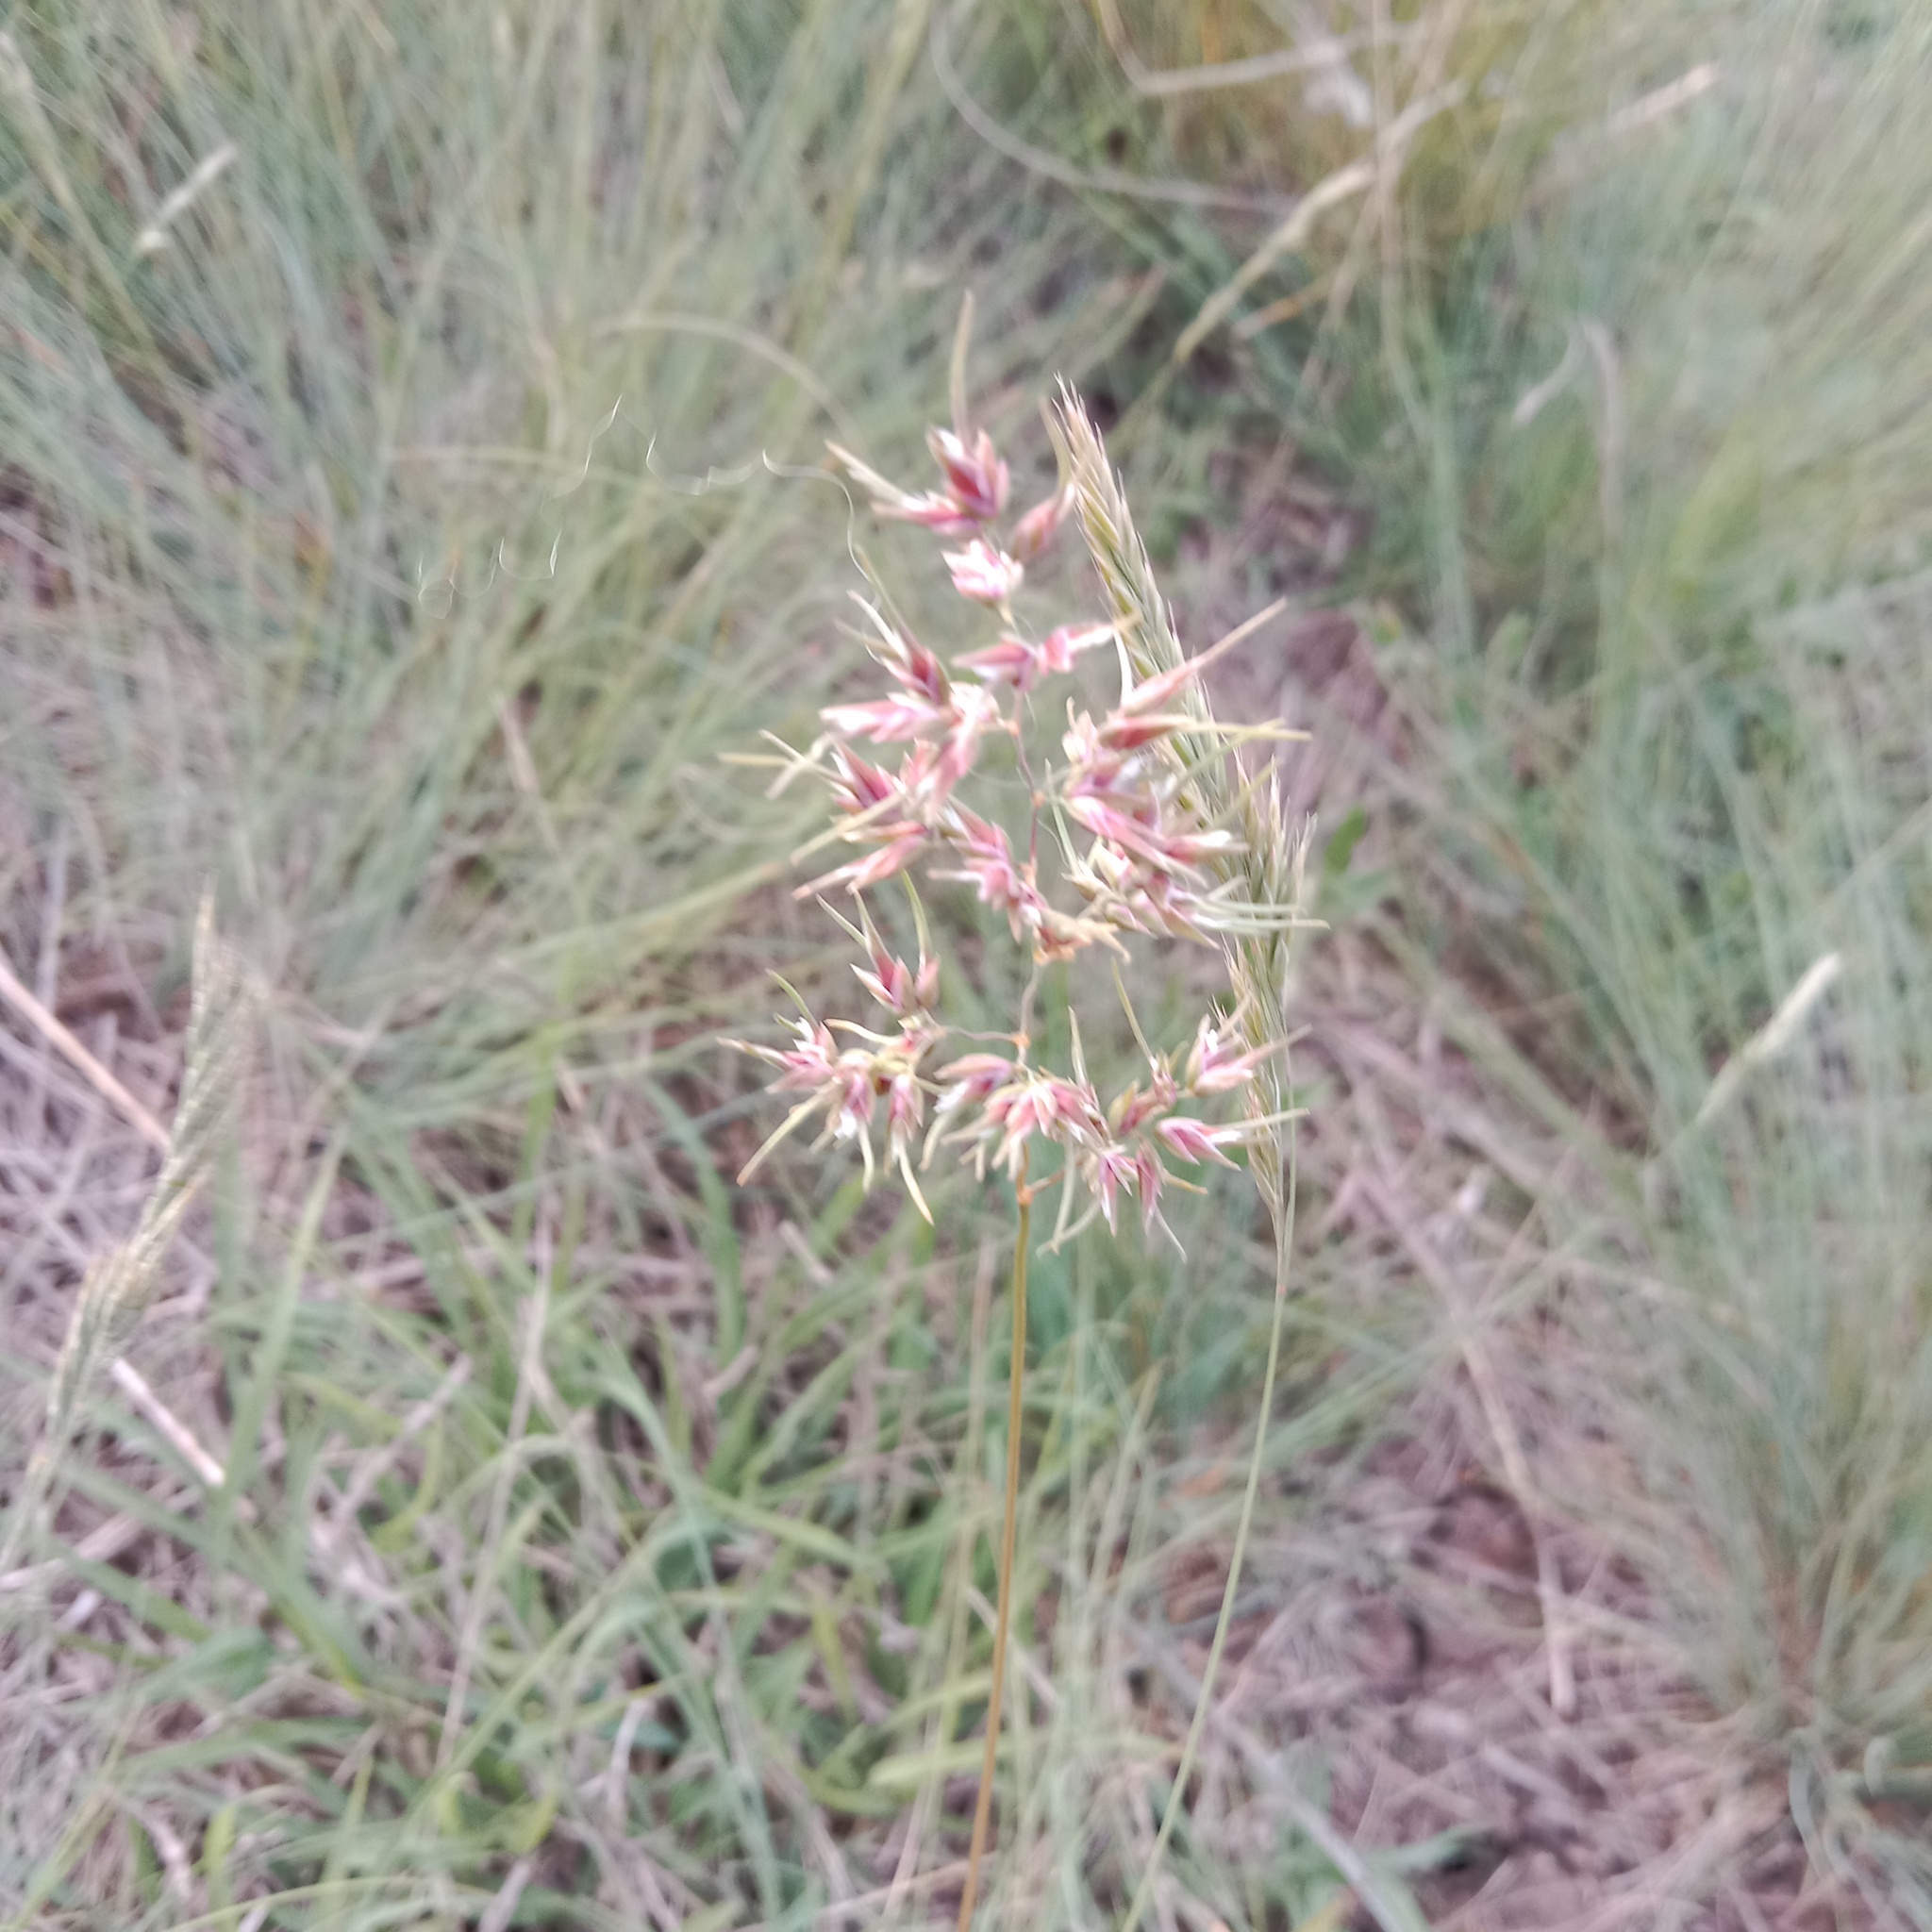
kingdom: Plantae
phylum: Tracheophyta
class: Liliopsida
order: Poales
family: Poaceae
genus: Poa
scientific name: Poa bulbosa
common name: Bulbous bluegrass
